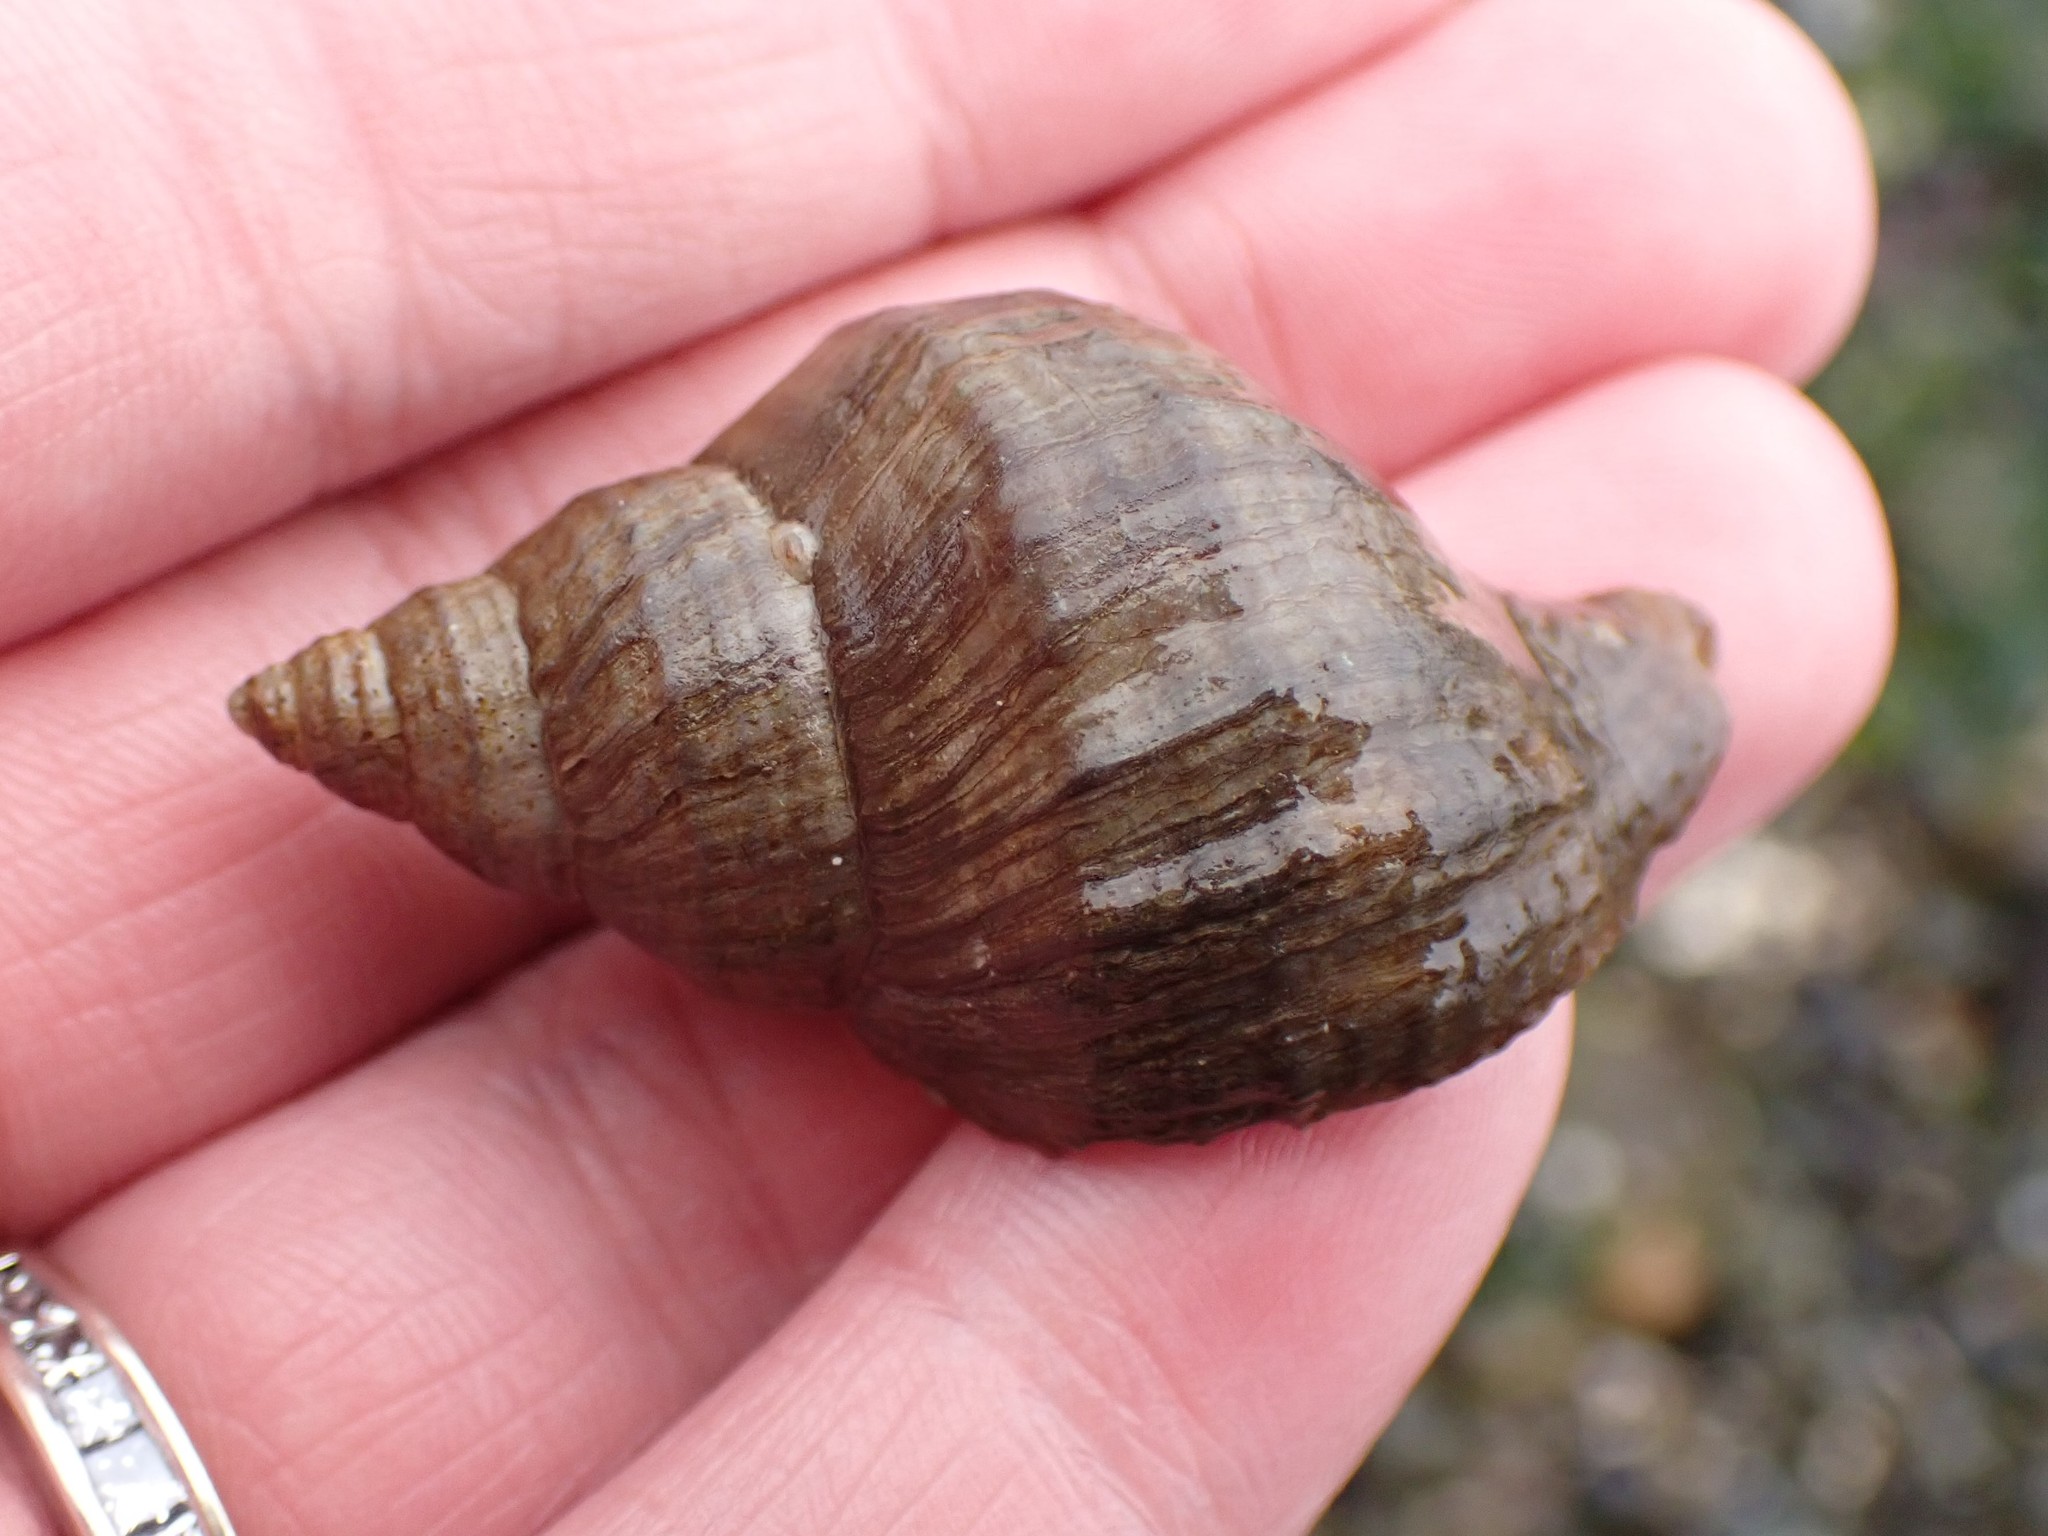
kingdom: Animalia
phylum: Mollusca
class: Gastropoda
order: Neogastropoda
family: Muricidae
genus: Nucella
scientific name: Nucella lamellosa
